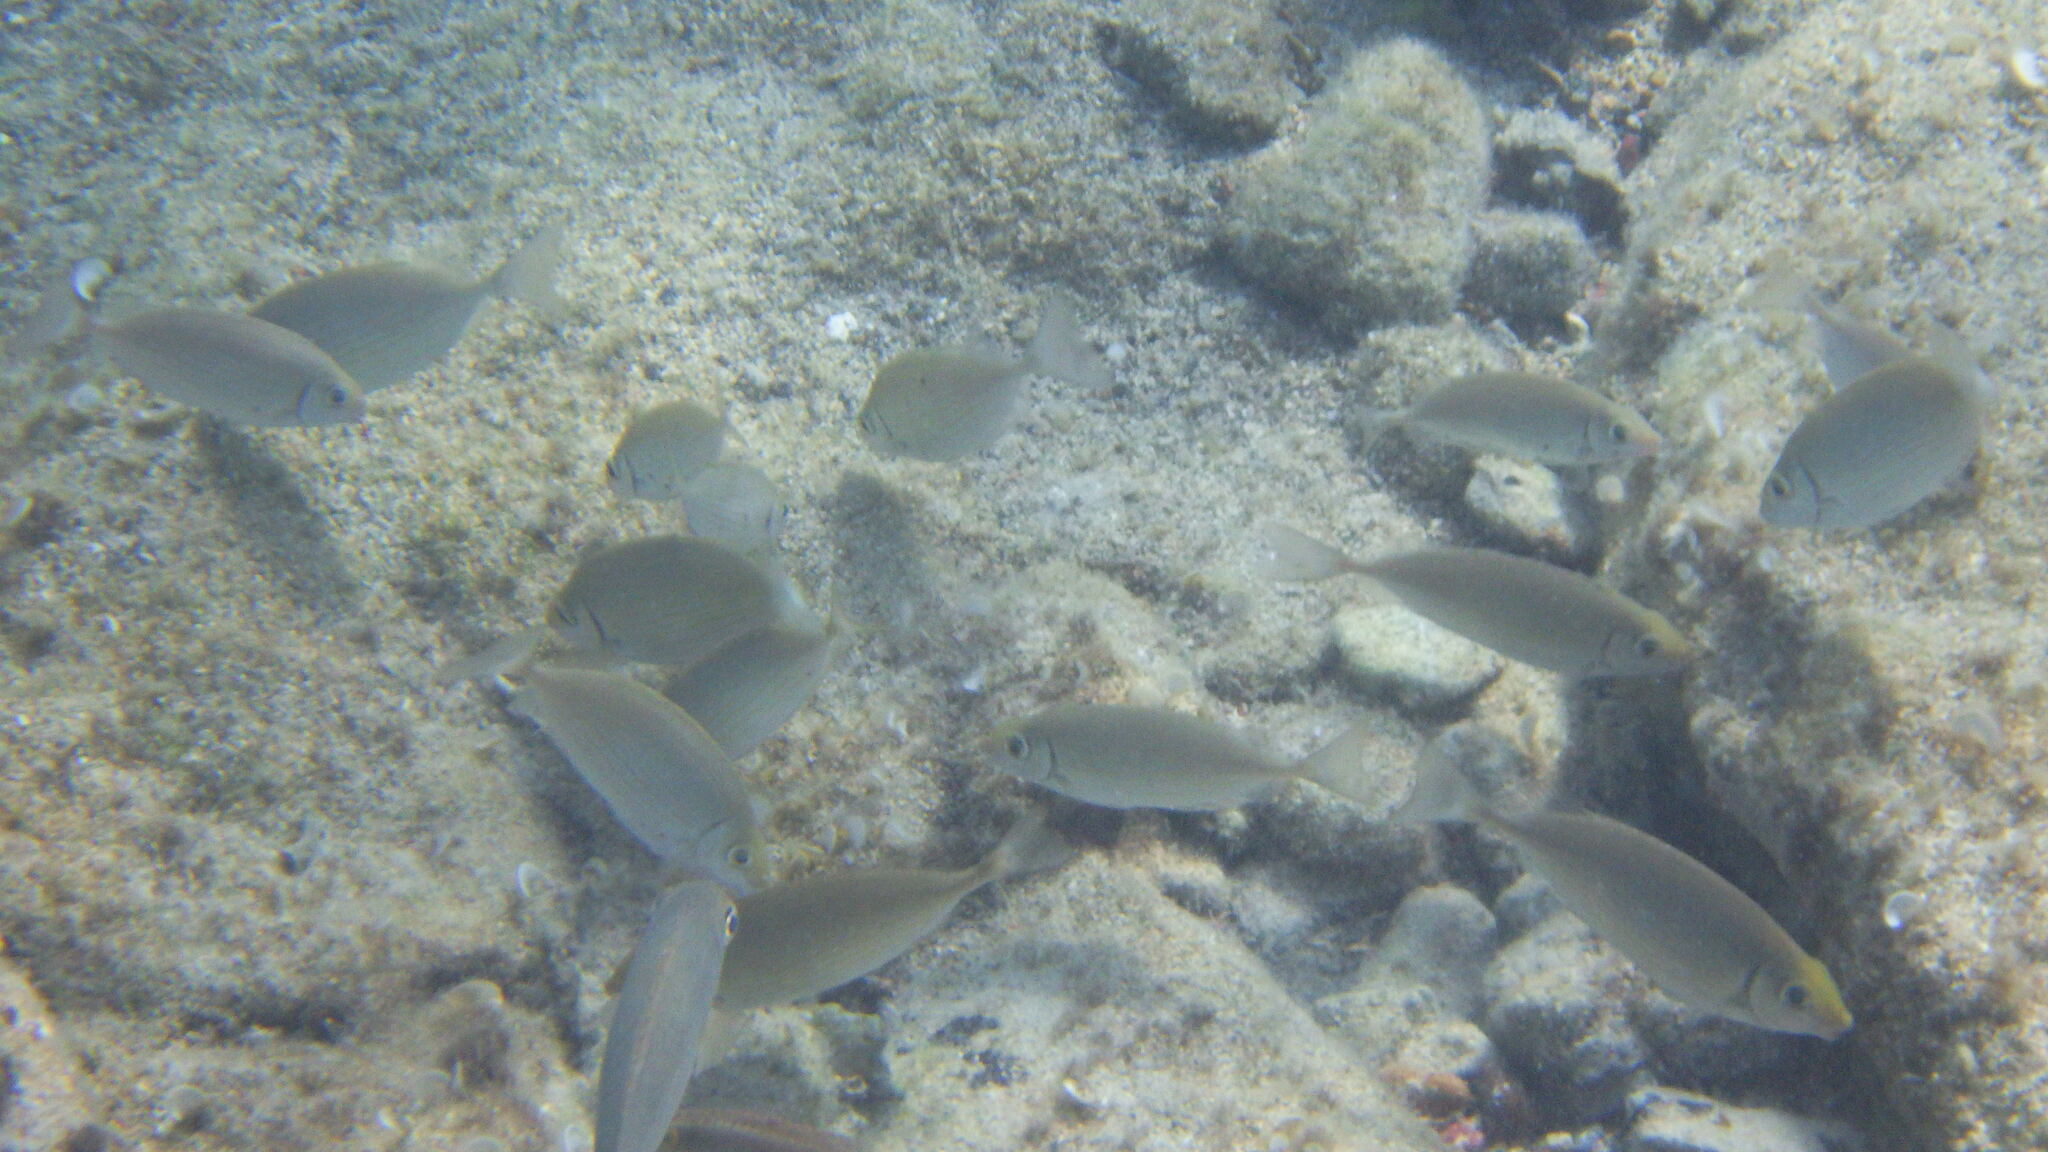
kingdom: Animalia
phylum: Chordata
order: Perciformes
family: Siganidae
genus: Siganus
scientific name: Siganus rivulatus
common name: Marbled spinefoot
